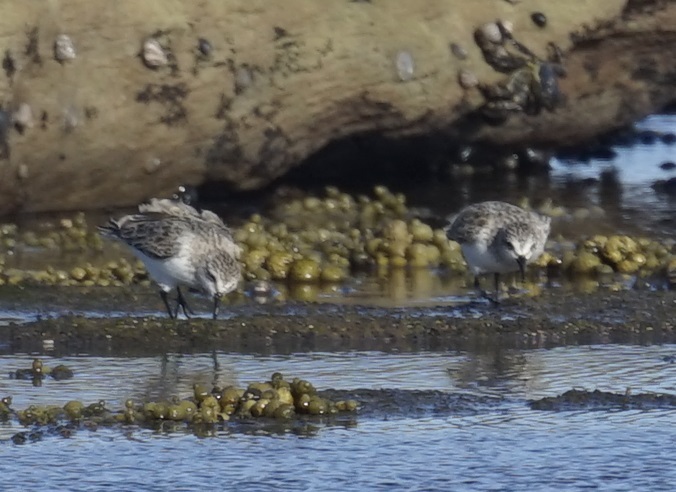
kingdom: Animalia
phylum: Chordata
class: Aves
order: Charadriiformes
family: Scolopacidae
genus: Calidris
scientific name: Calidris ruficollis
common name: Red-necked stint
